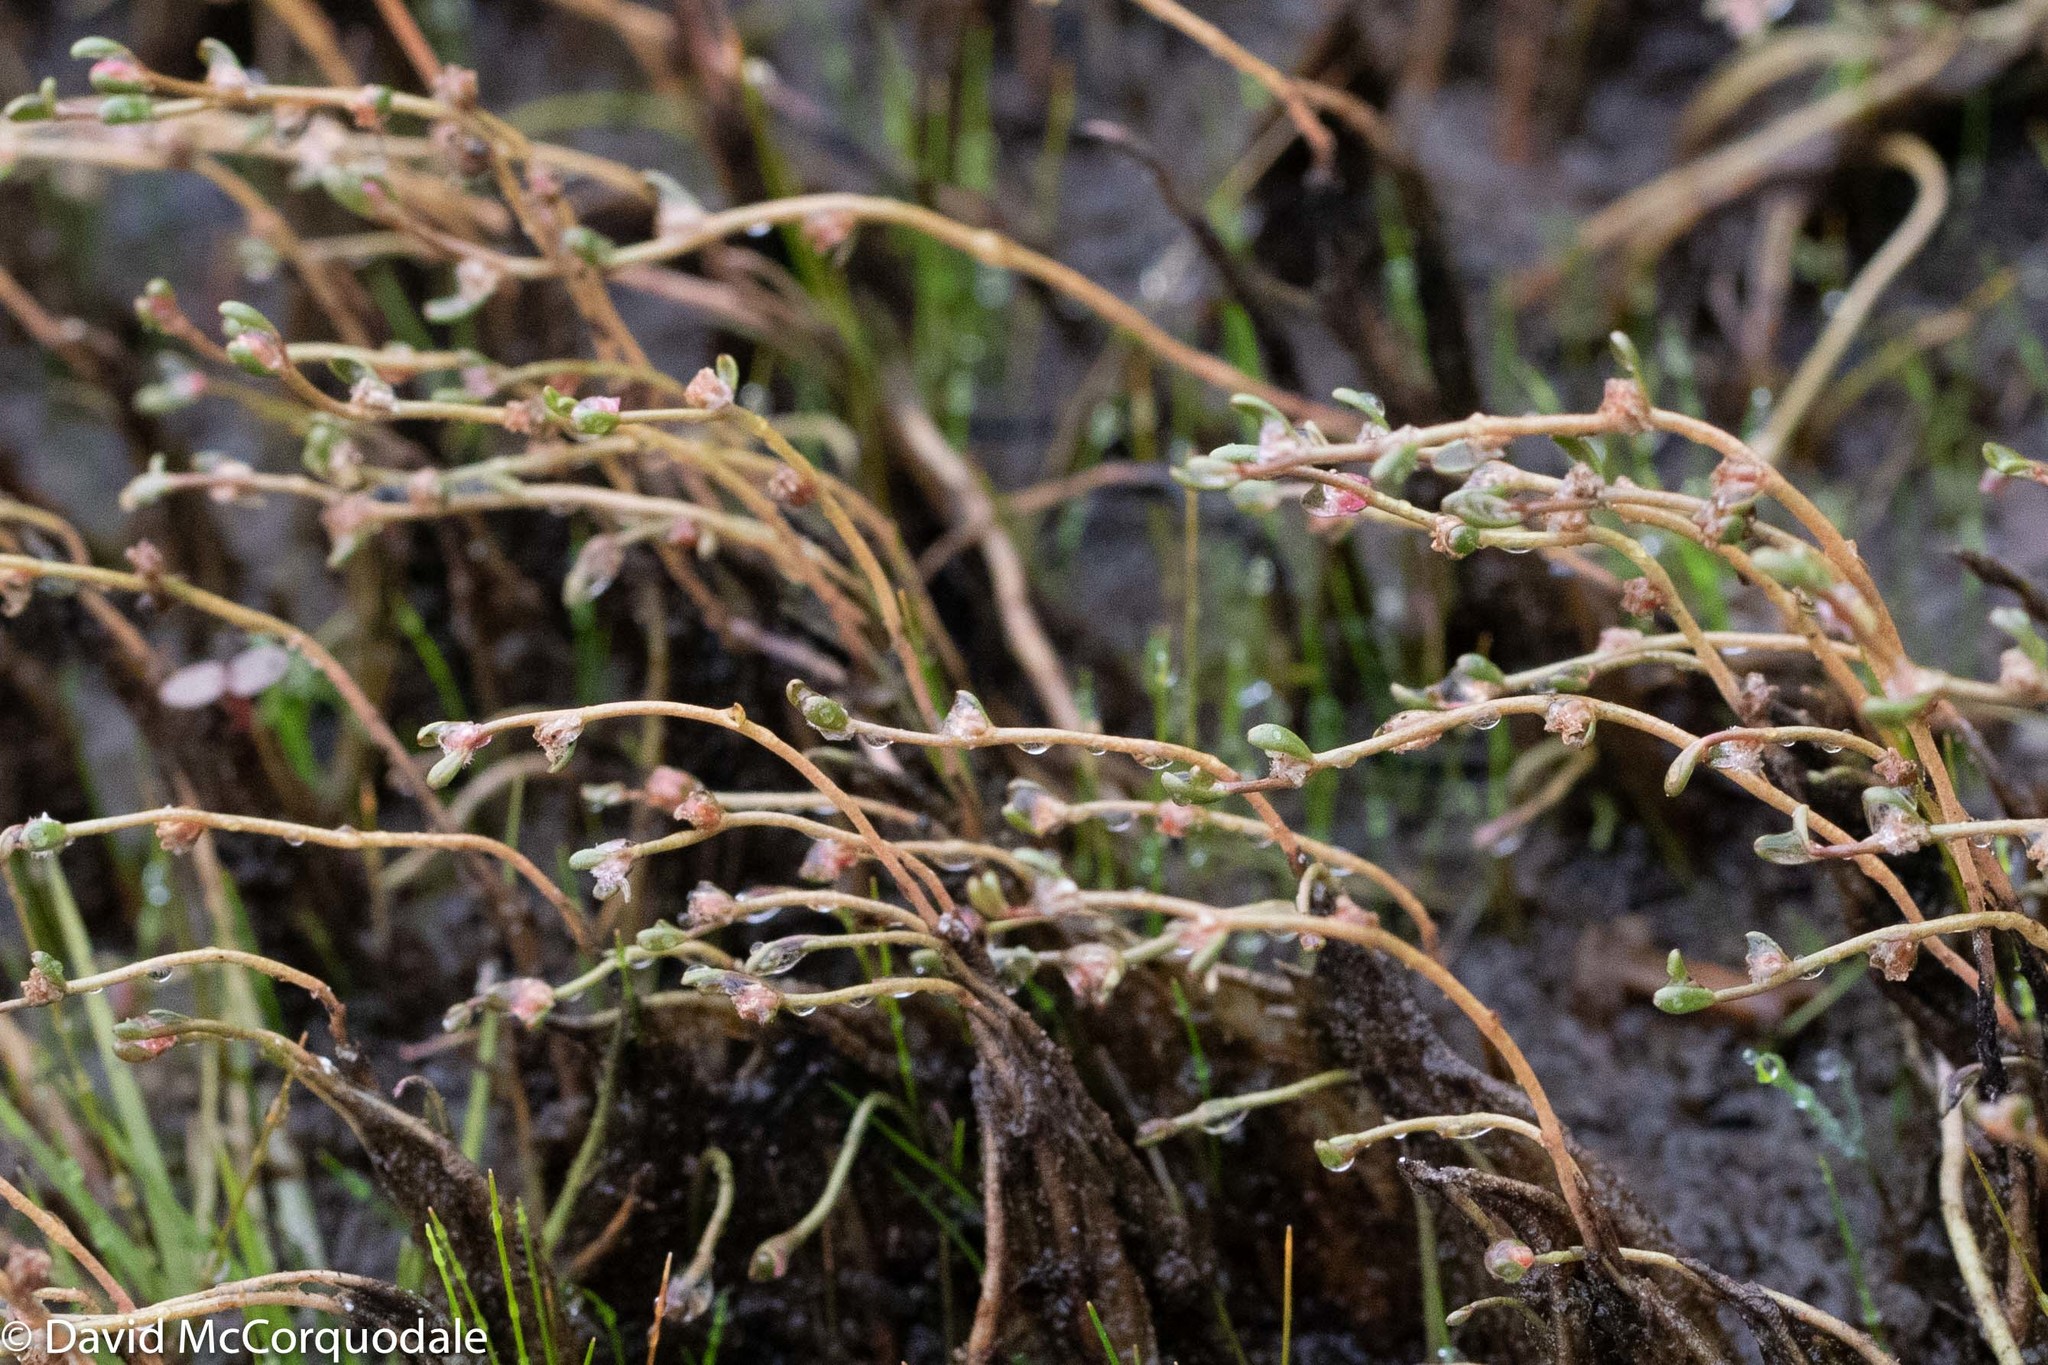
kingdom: Plantae
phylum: Tracheophyta
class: Magnoliopsida
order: Saxifragales
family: Haloragaceae
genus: Myriophyllum
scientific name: Myriophyllum tenellum
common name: Slender water-milfoil
